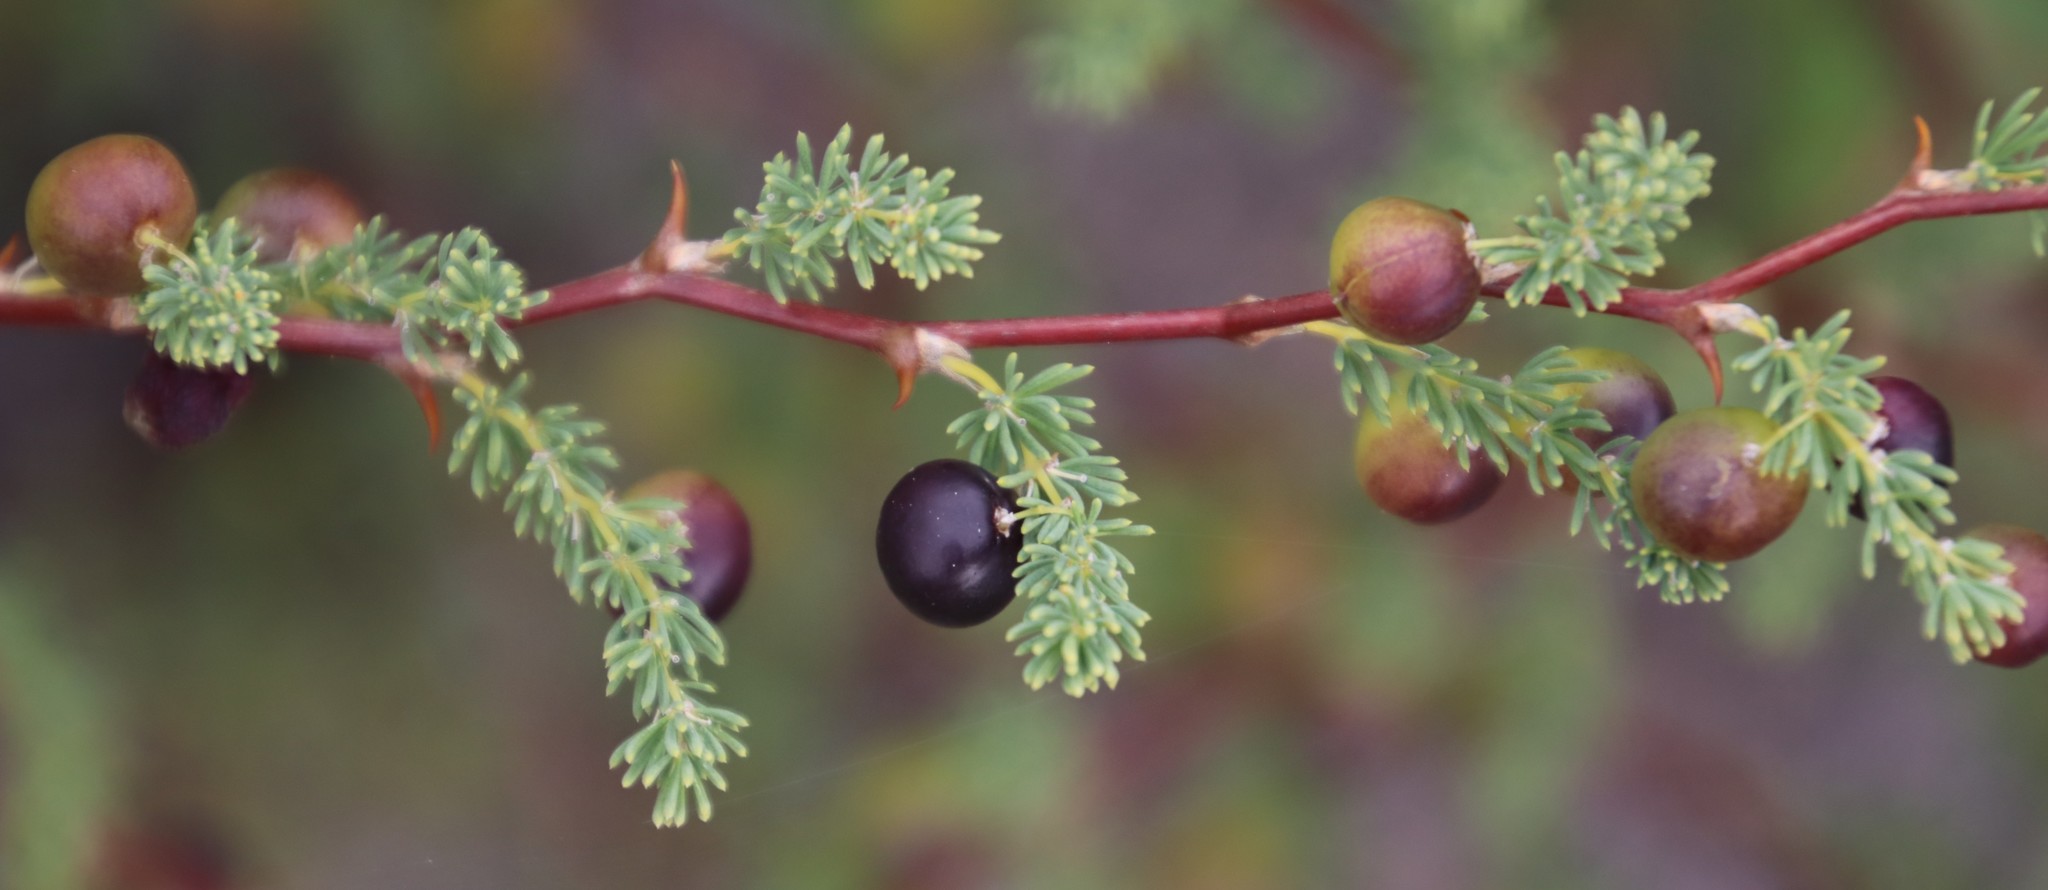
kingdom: Plantae
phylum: Tracheophyta
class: Liliopsida
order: Asparagales
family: Asparagaceae
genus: Asparagus
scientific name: Asparagus rubicundus
